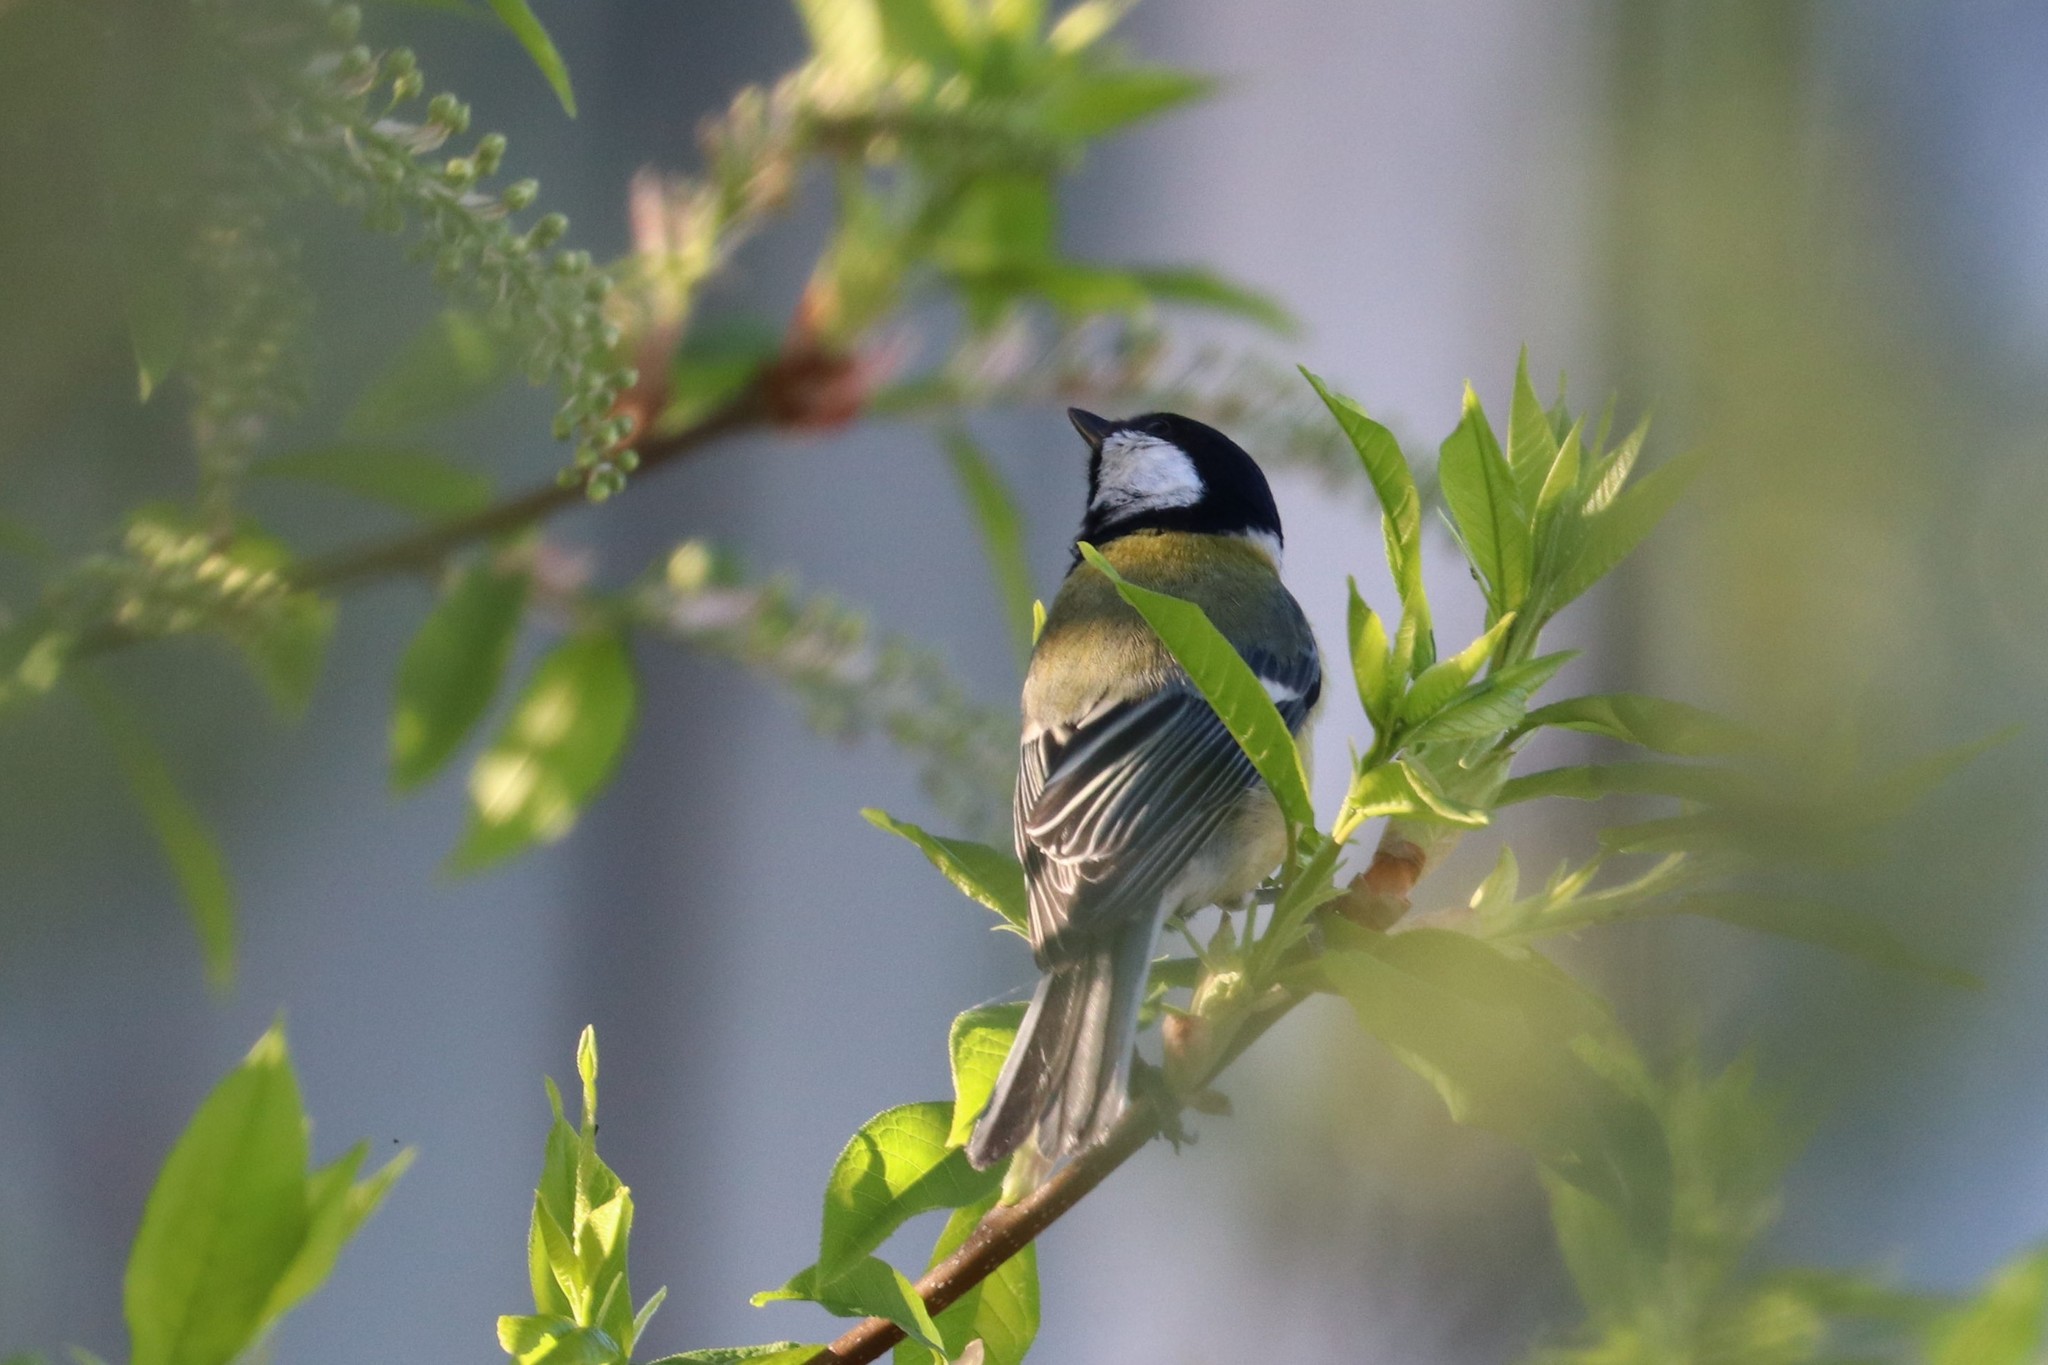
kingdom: Animalia
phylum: Chordata
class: Aves
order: Passeriformes
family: Paridae
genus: Parus
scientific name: Parus major
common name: Great tit
